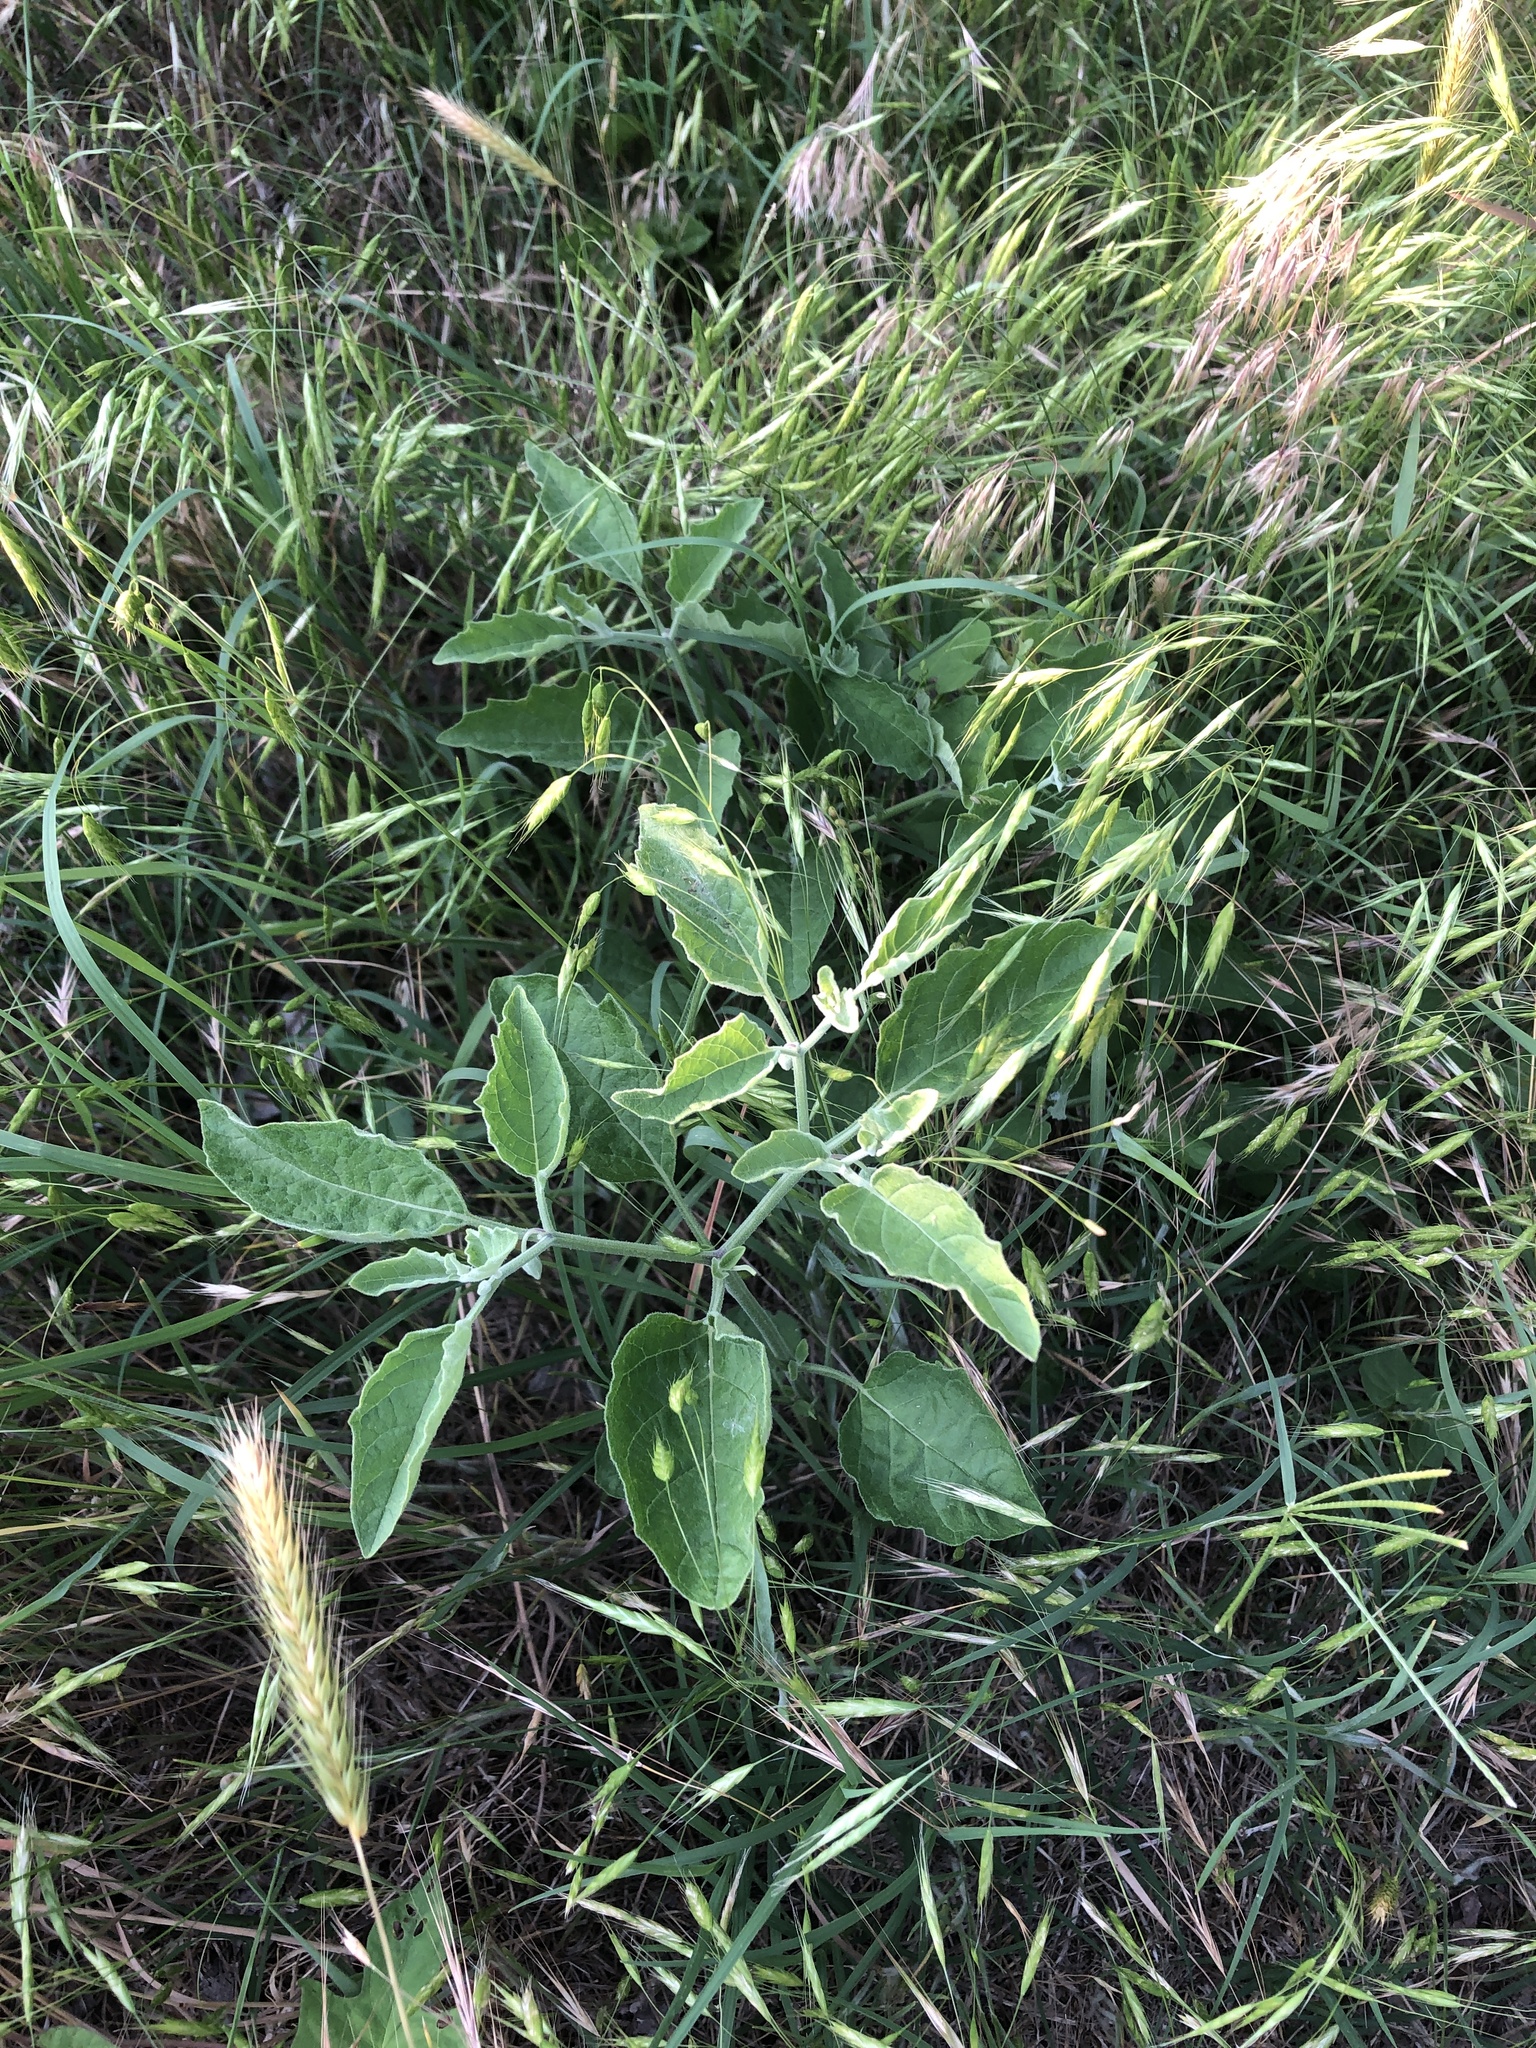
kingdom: Plantae
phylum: Tracheophyta
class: Magnoliopsida
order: Solanales
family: Solanaceae
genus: Physalis
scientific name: Physalis cinerascens
